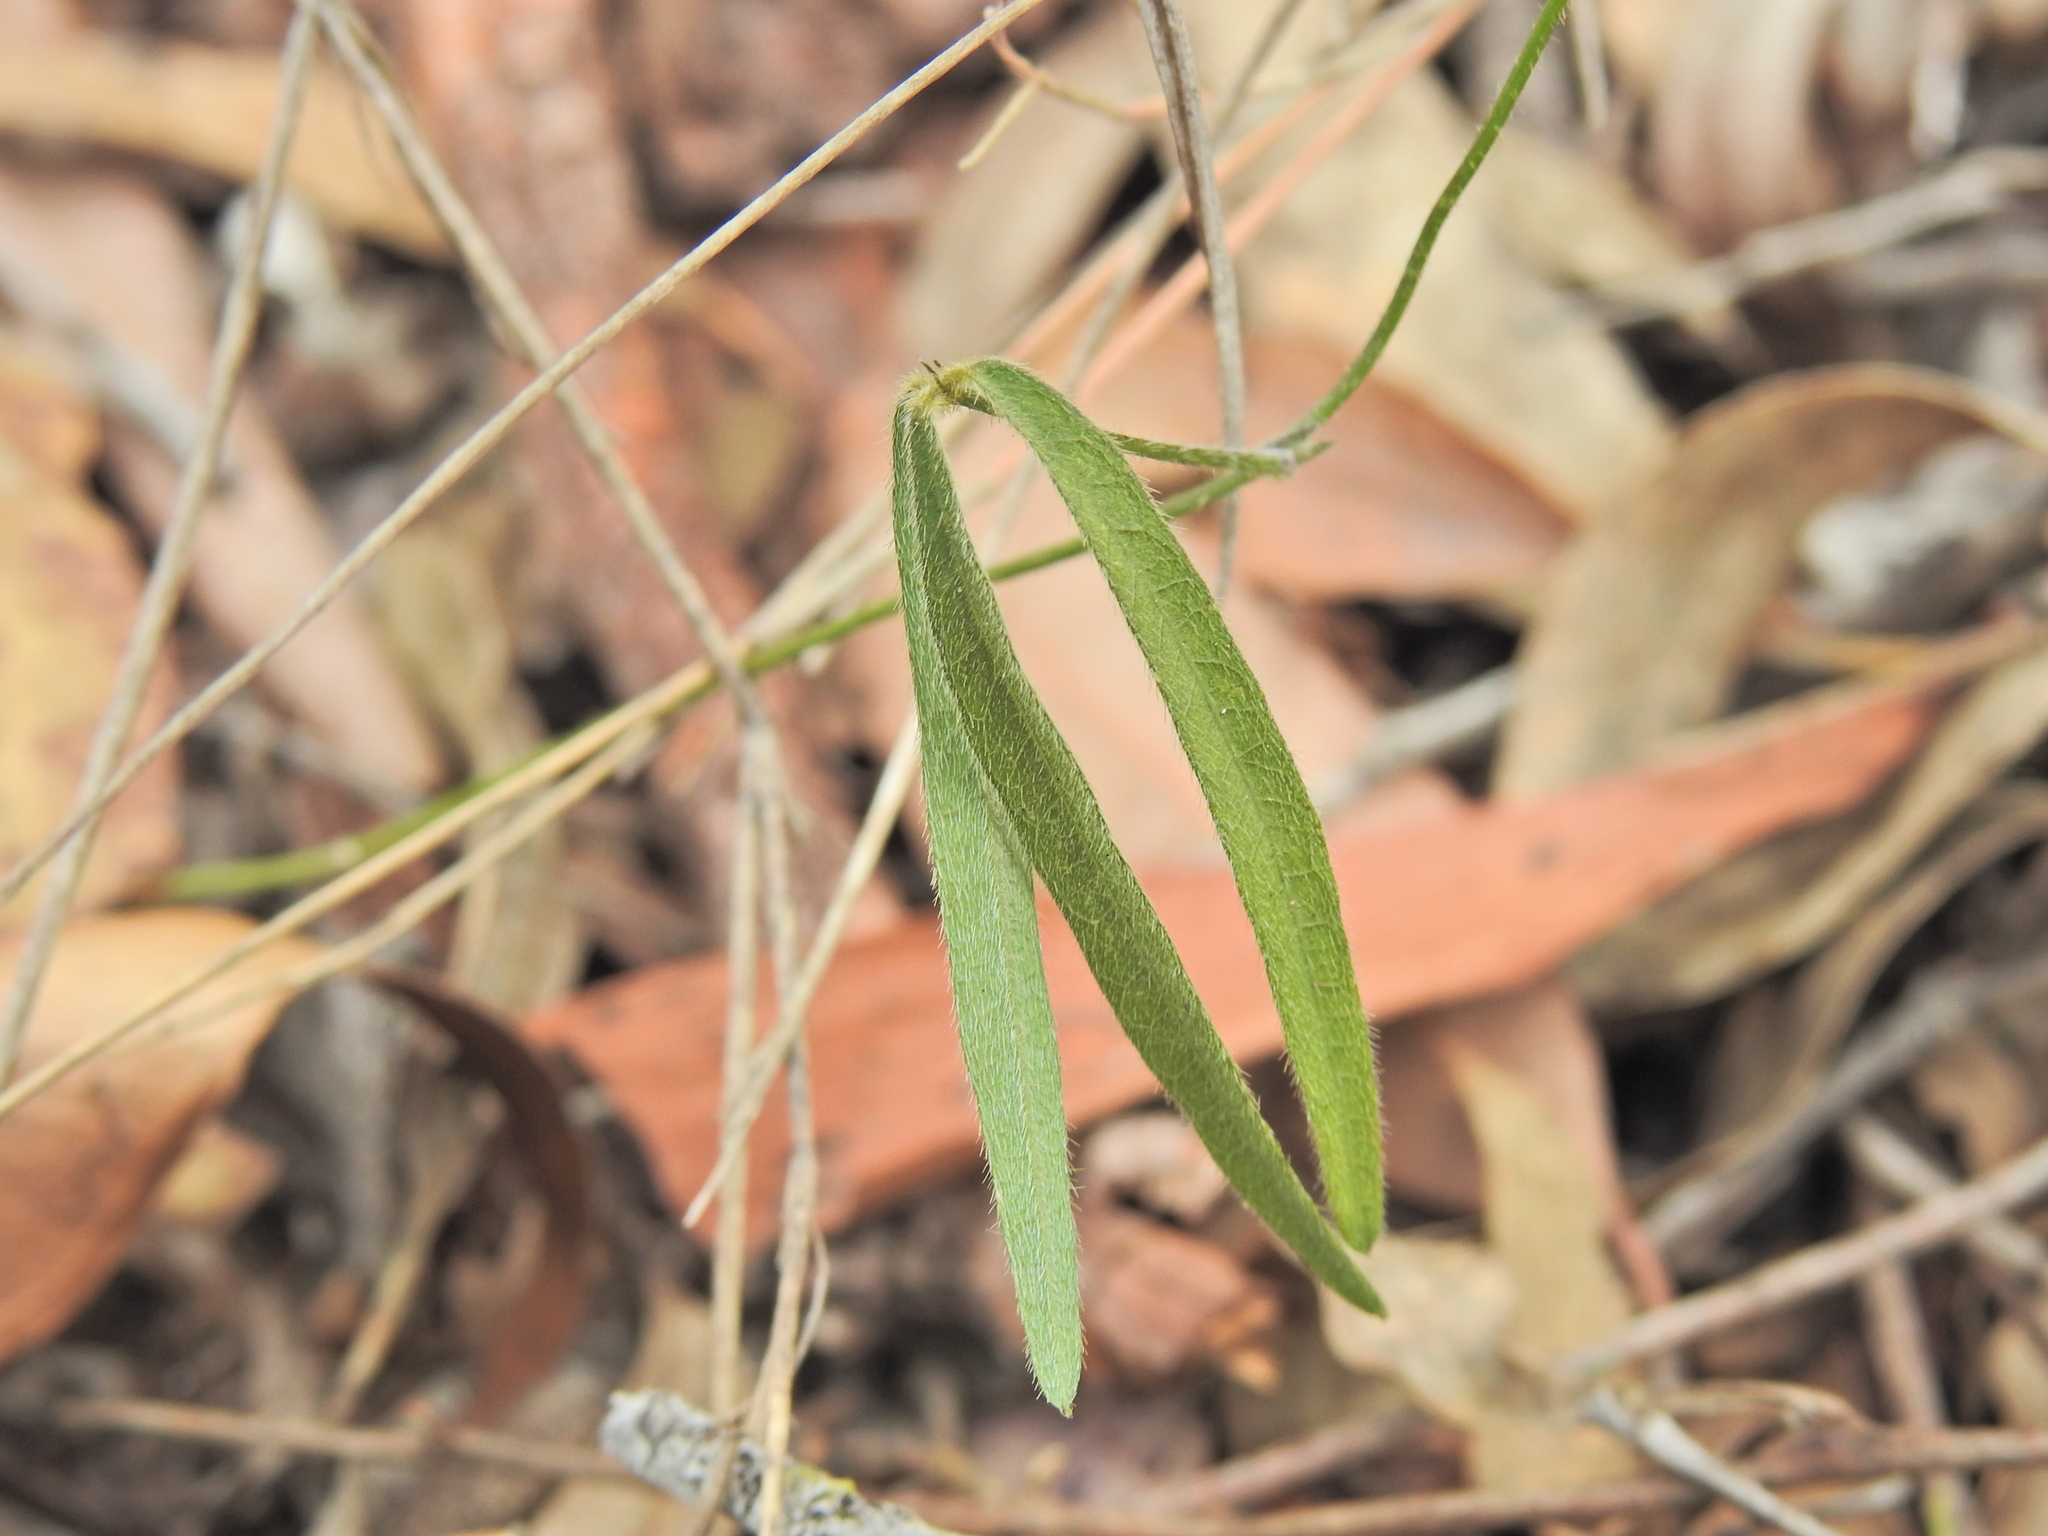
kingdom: Plantae
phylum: Tracheophyta
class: Magnoliopsida
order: Fabales
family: Fabaceae
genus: Glycine
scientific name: Glycine clandestina
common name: Twining glycine
